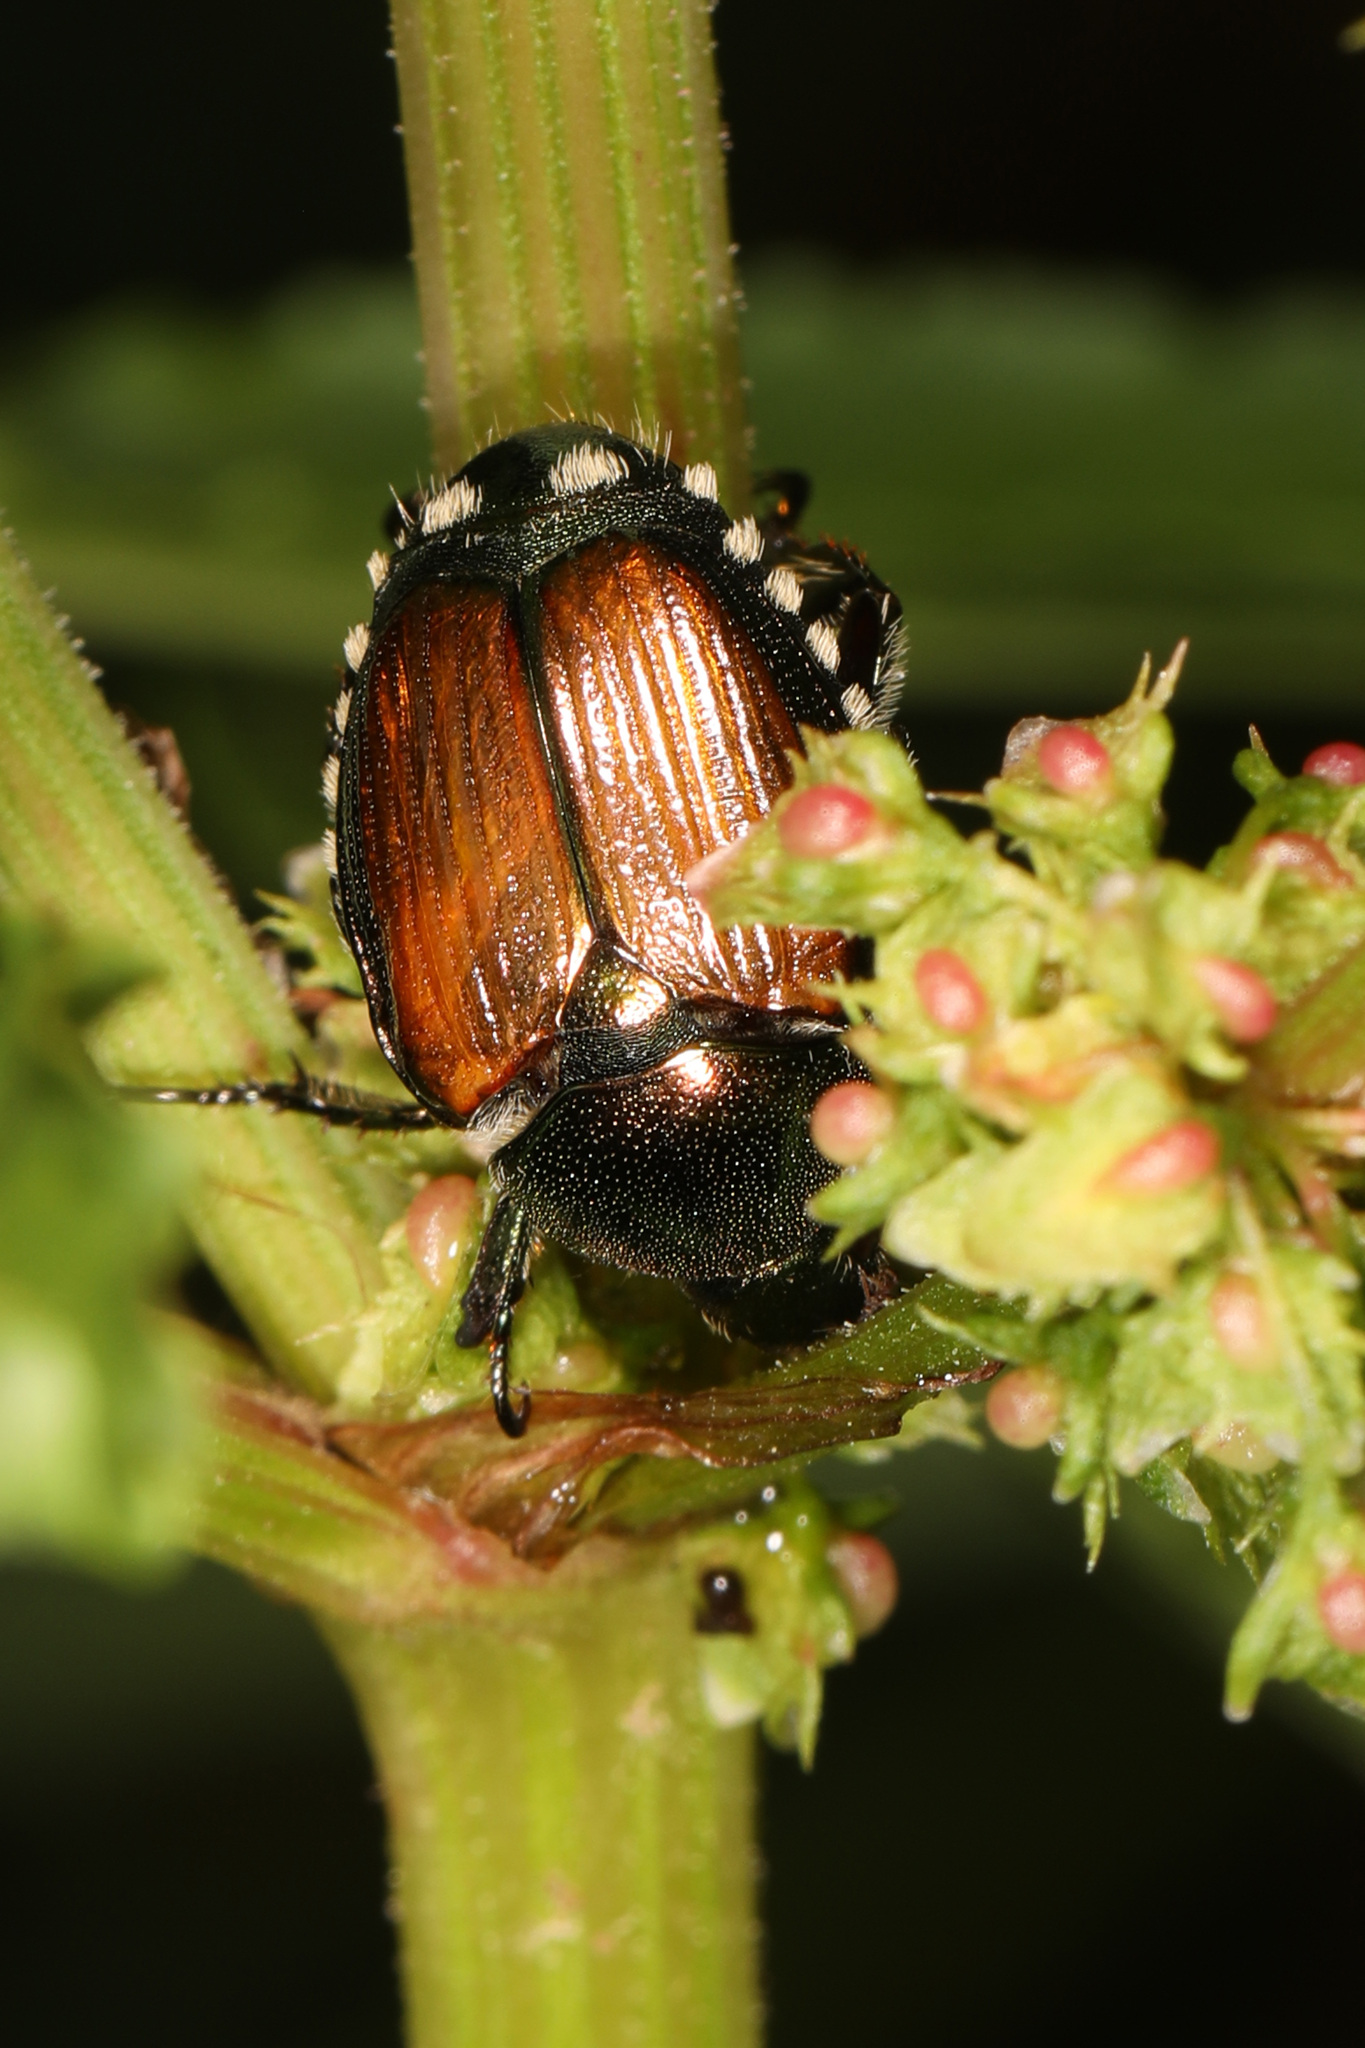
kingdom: Animalia
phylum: Arthropoda
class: Insecta
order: Coleoptera
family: Scarabaeidae
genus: Popillia
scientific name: Popillia japonica
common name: Japanese beetle
